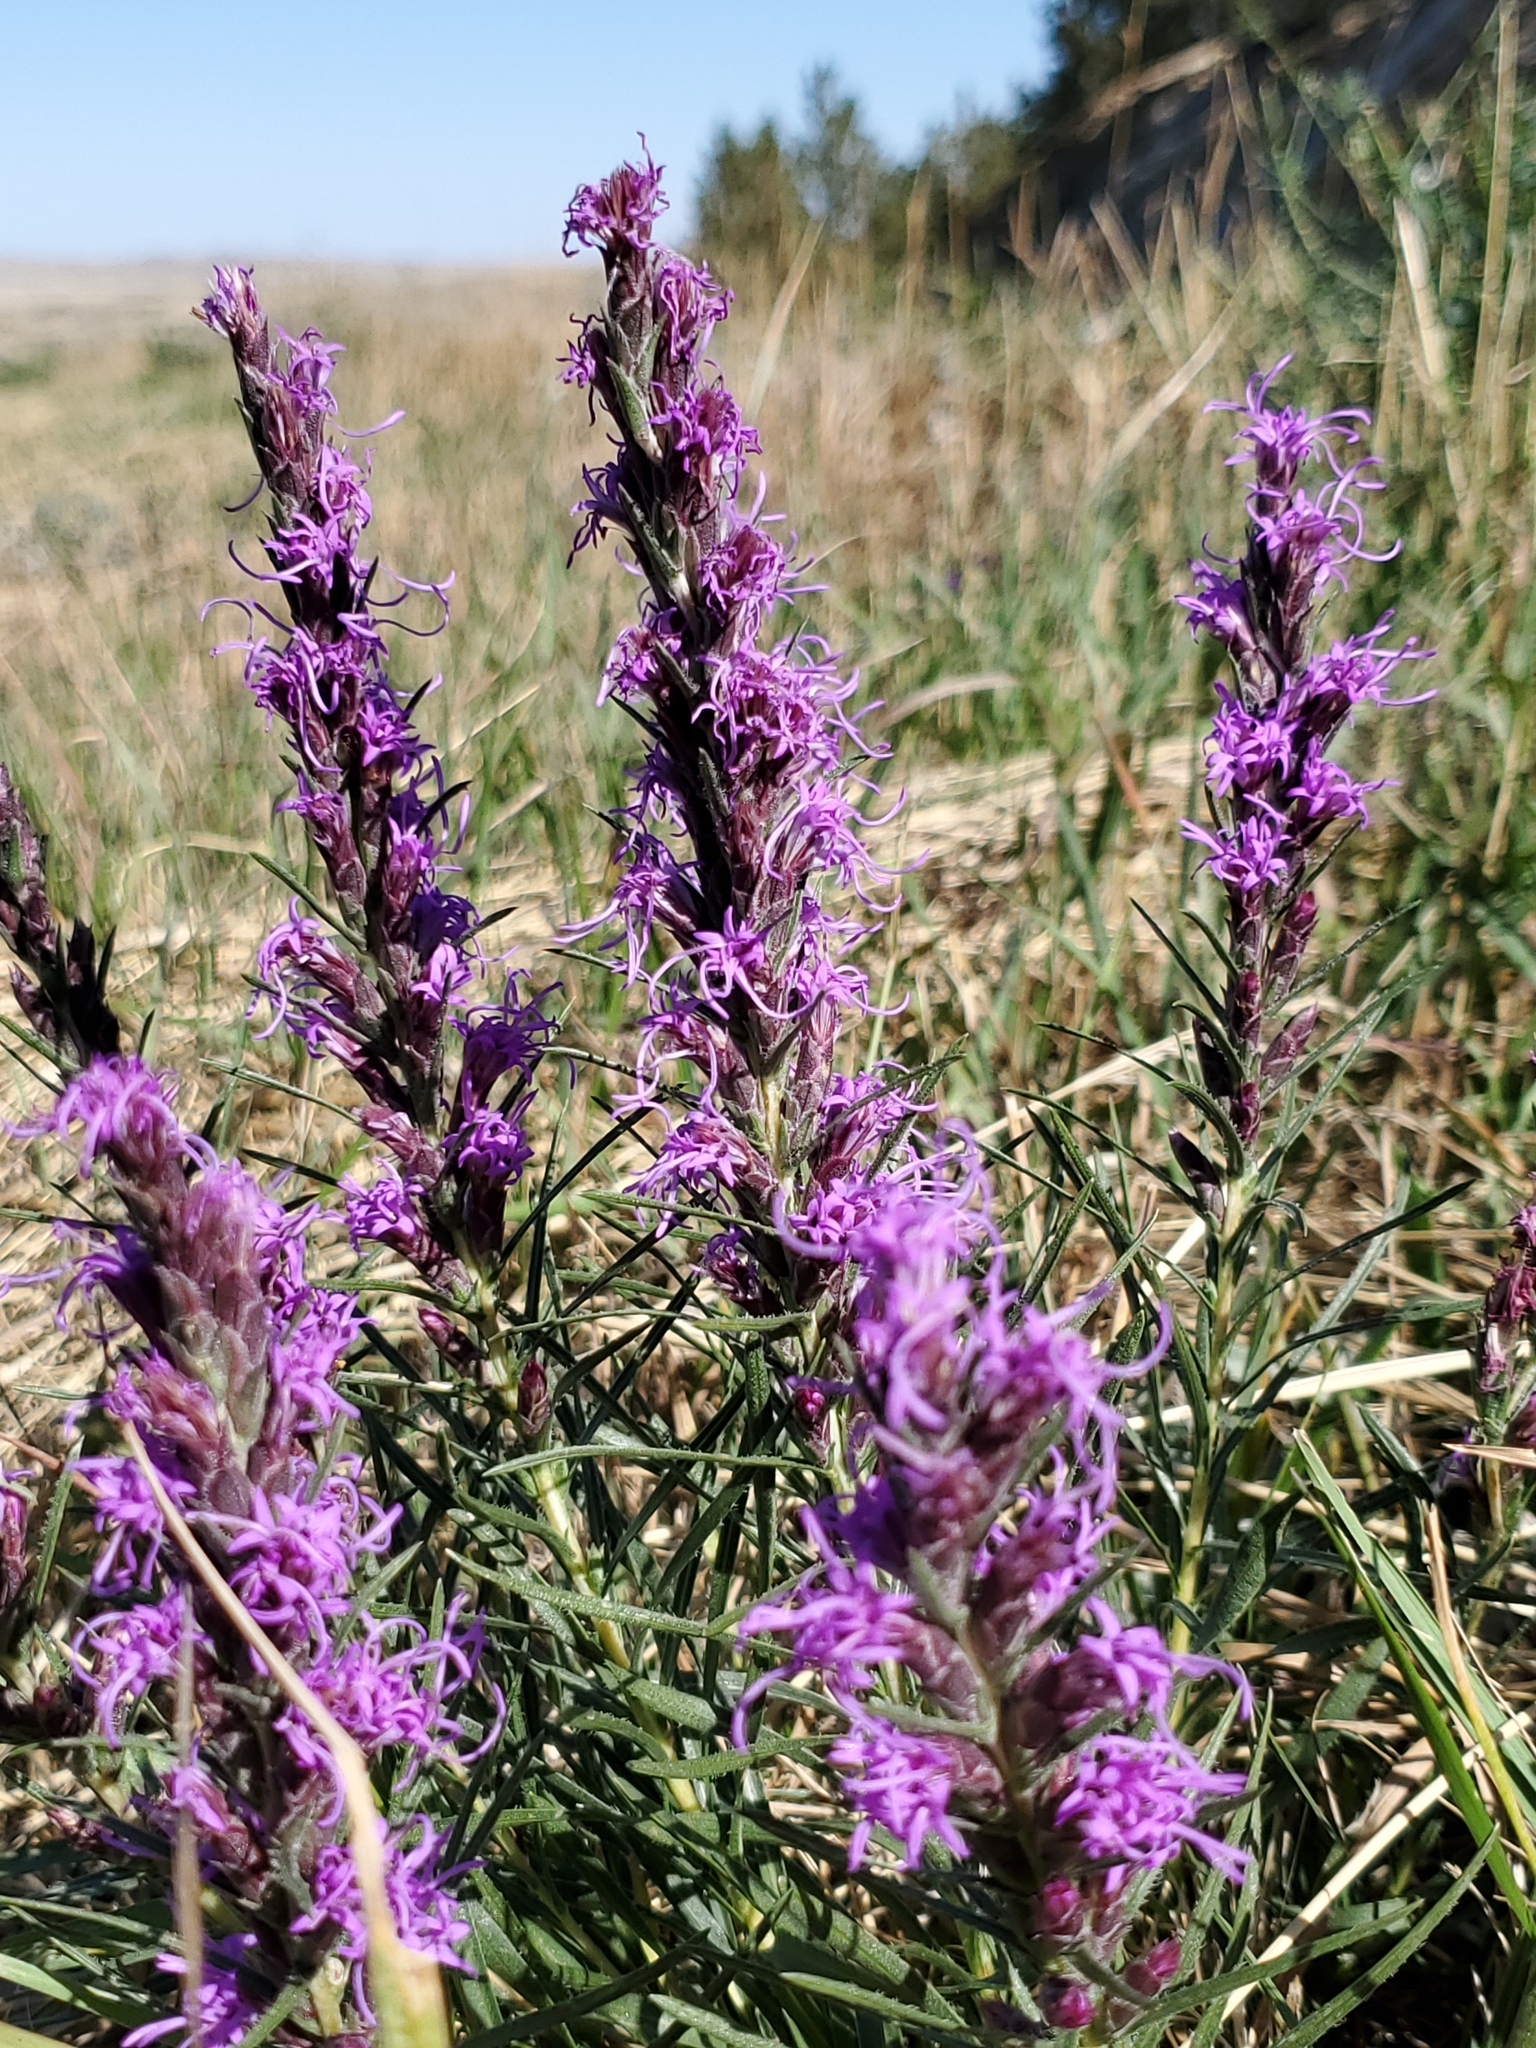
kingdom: Plantae
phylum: Tracheophyta
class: Magnoliopsida
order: Asterales
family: Asteraceae
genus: Liatris
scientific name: Liatris punctata
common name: Dotted gayfeather
